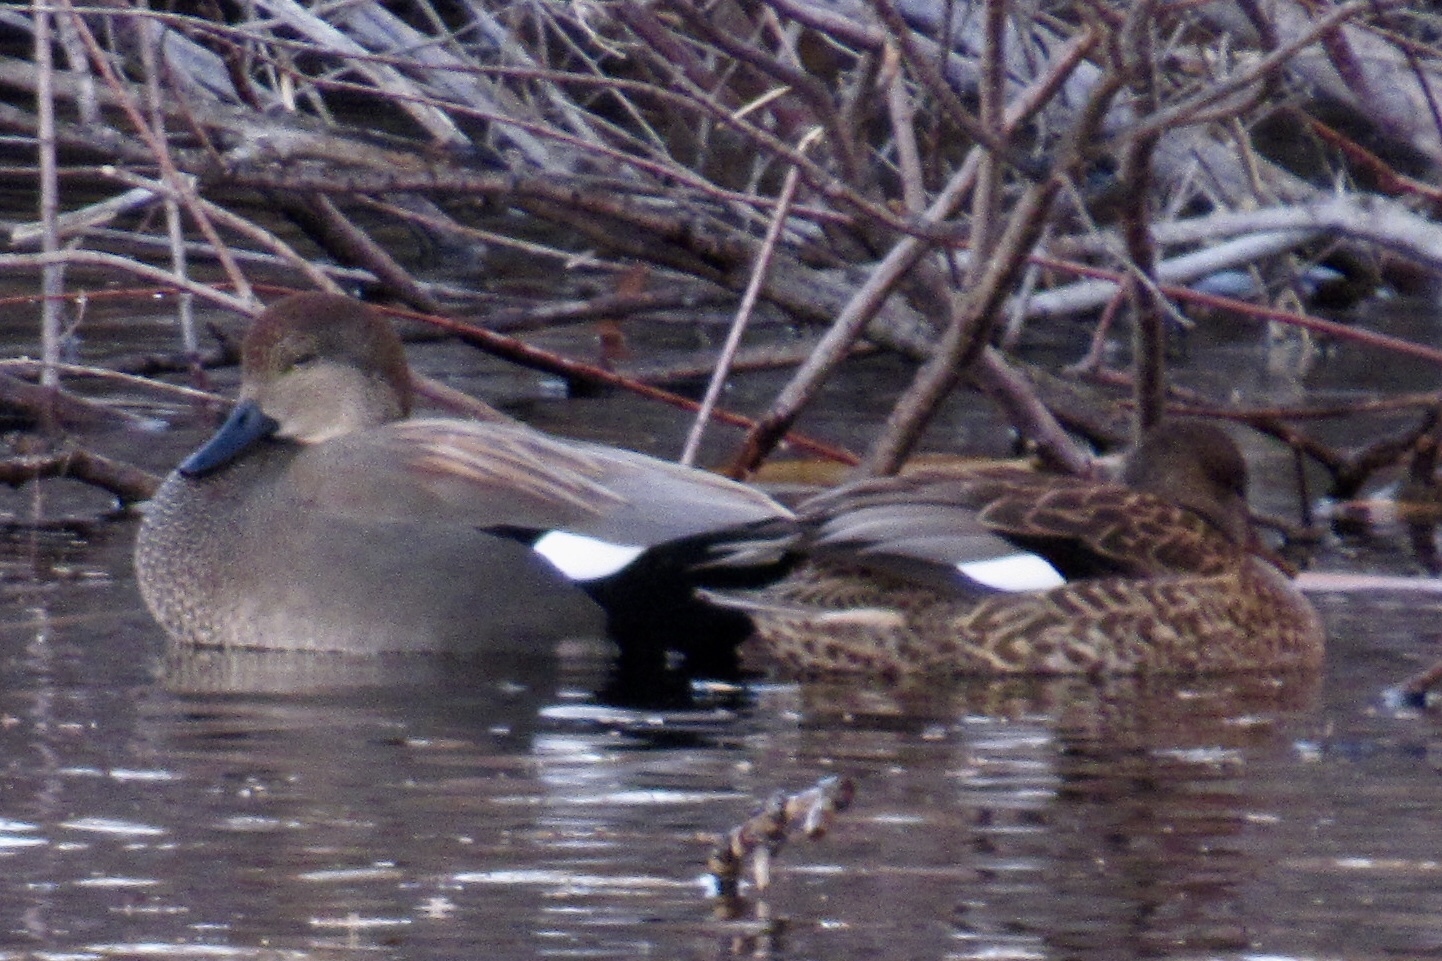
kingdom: Animalia
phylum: Chordata
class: Aves
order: Anseriformes
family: Anatidae
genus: Mareca
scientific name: Mareca strepera
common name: Gadwall
